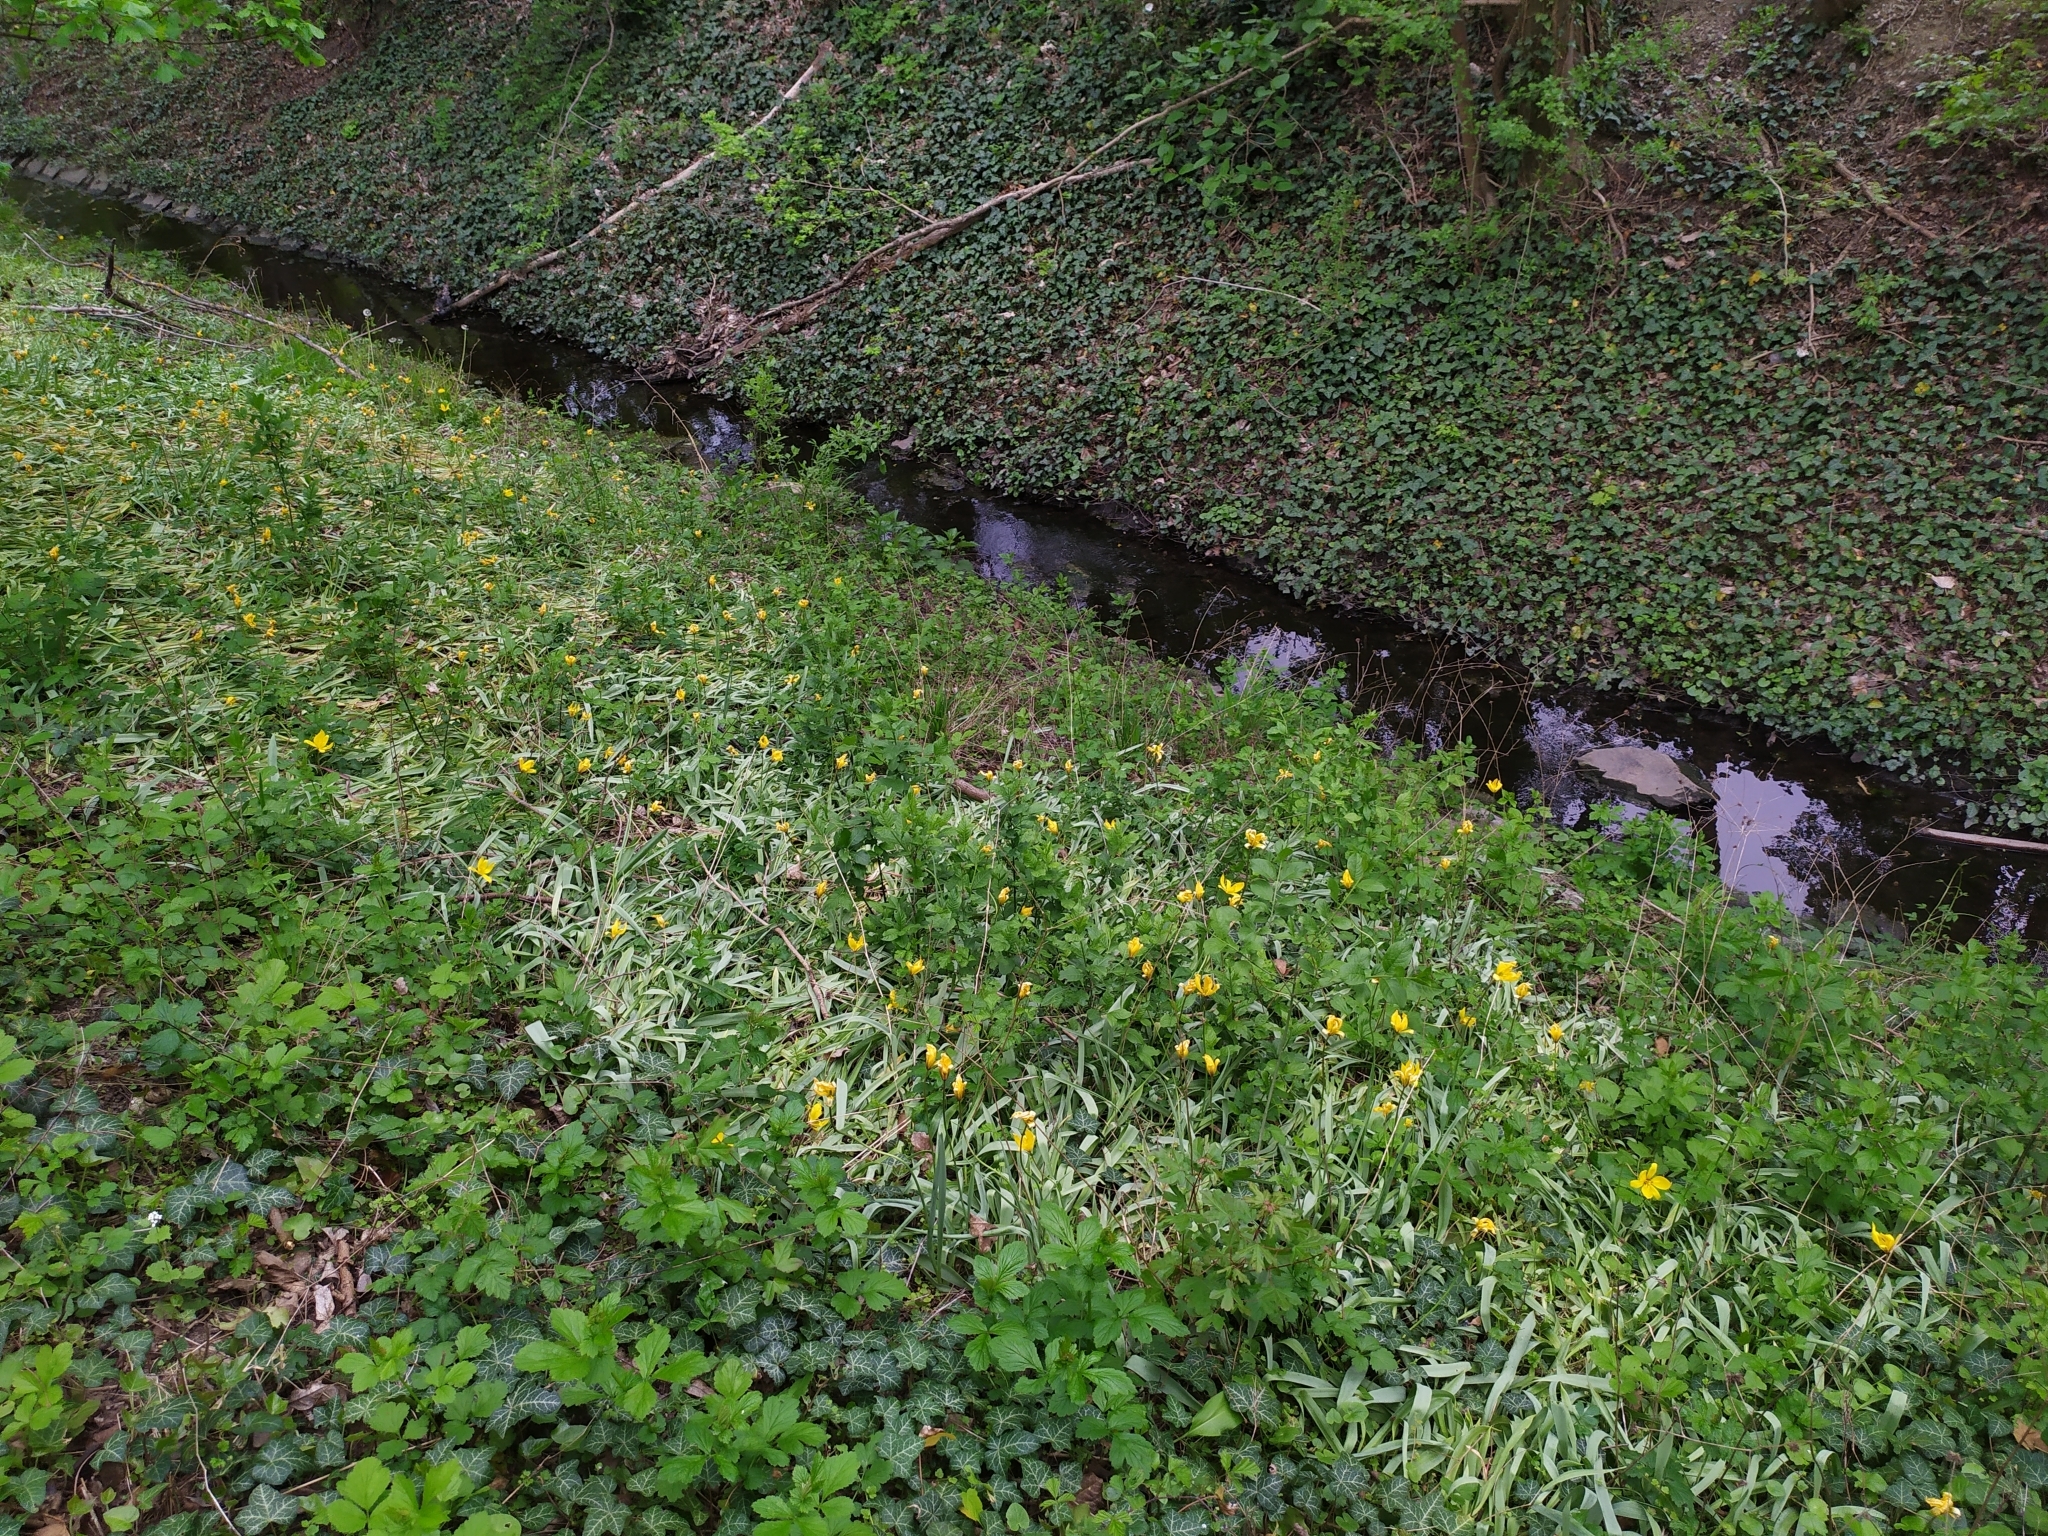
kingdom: Plantae
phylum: Tracheophyta
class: Liliopsida
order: Liliales
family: Liliaceae
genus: Tulipa
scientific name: Tulipa sylvestris
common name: Wild tulip
